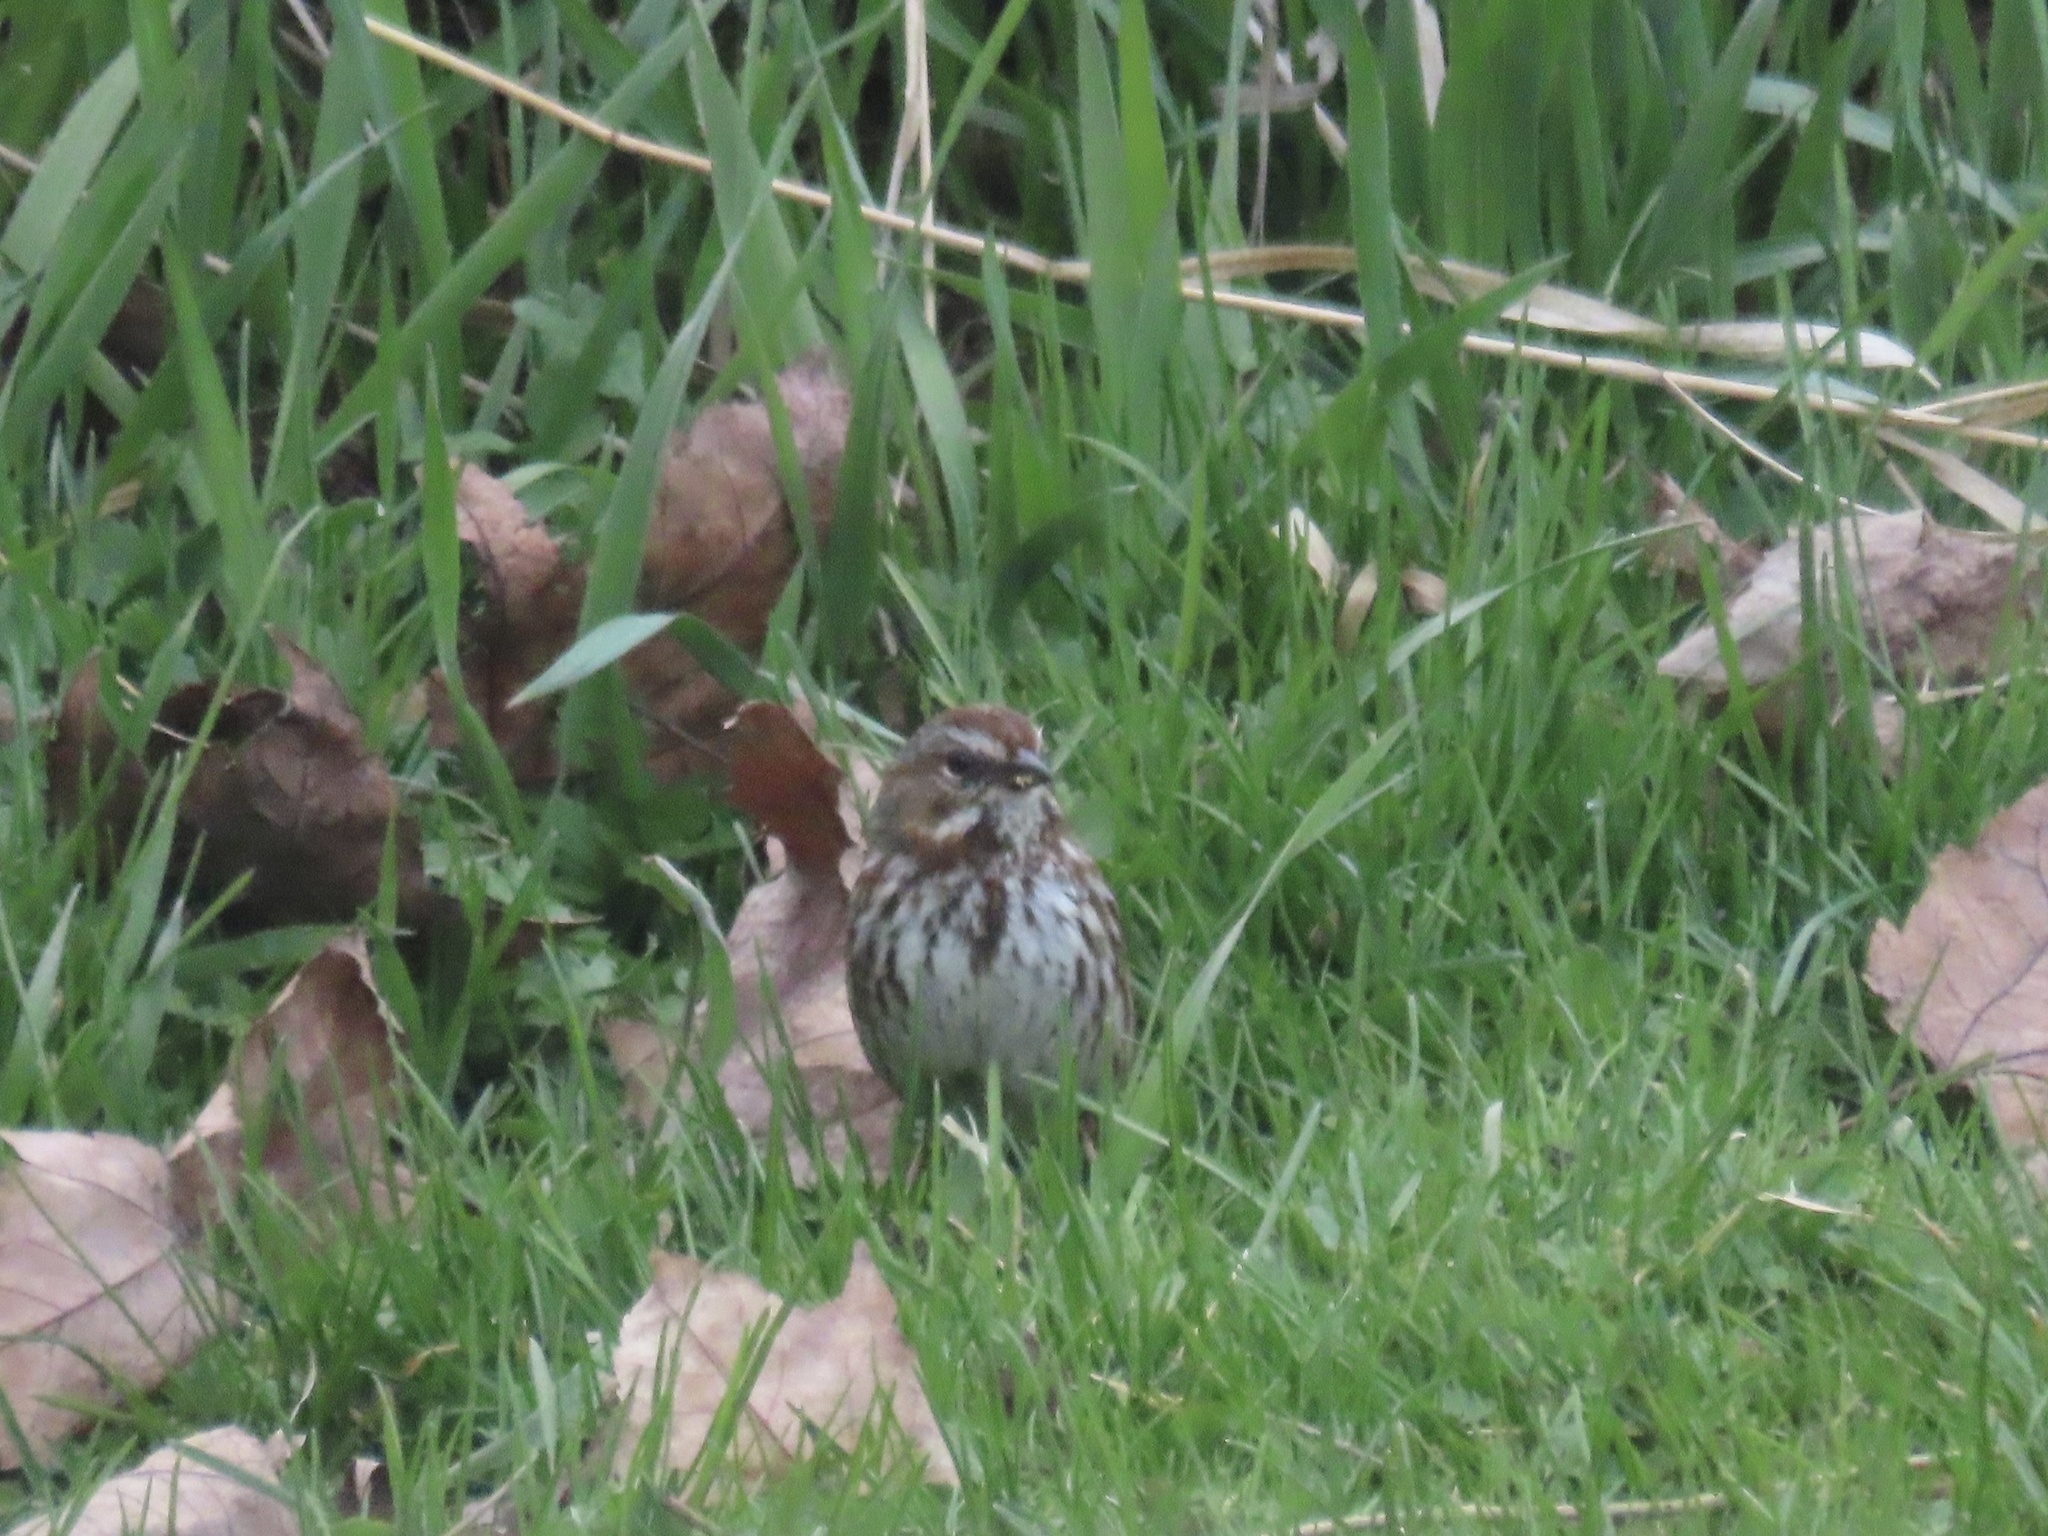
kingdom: Animalia
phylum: Chordata
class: Aves
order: Passeriformes
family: Passerellidae
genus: Melospiza
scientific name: Melospiza melodia
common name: Song sparrow
